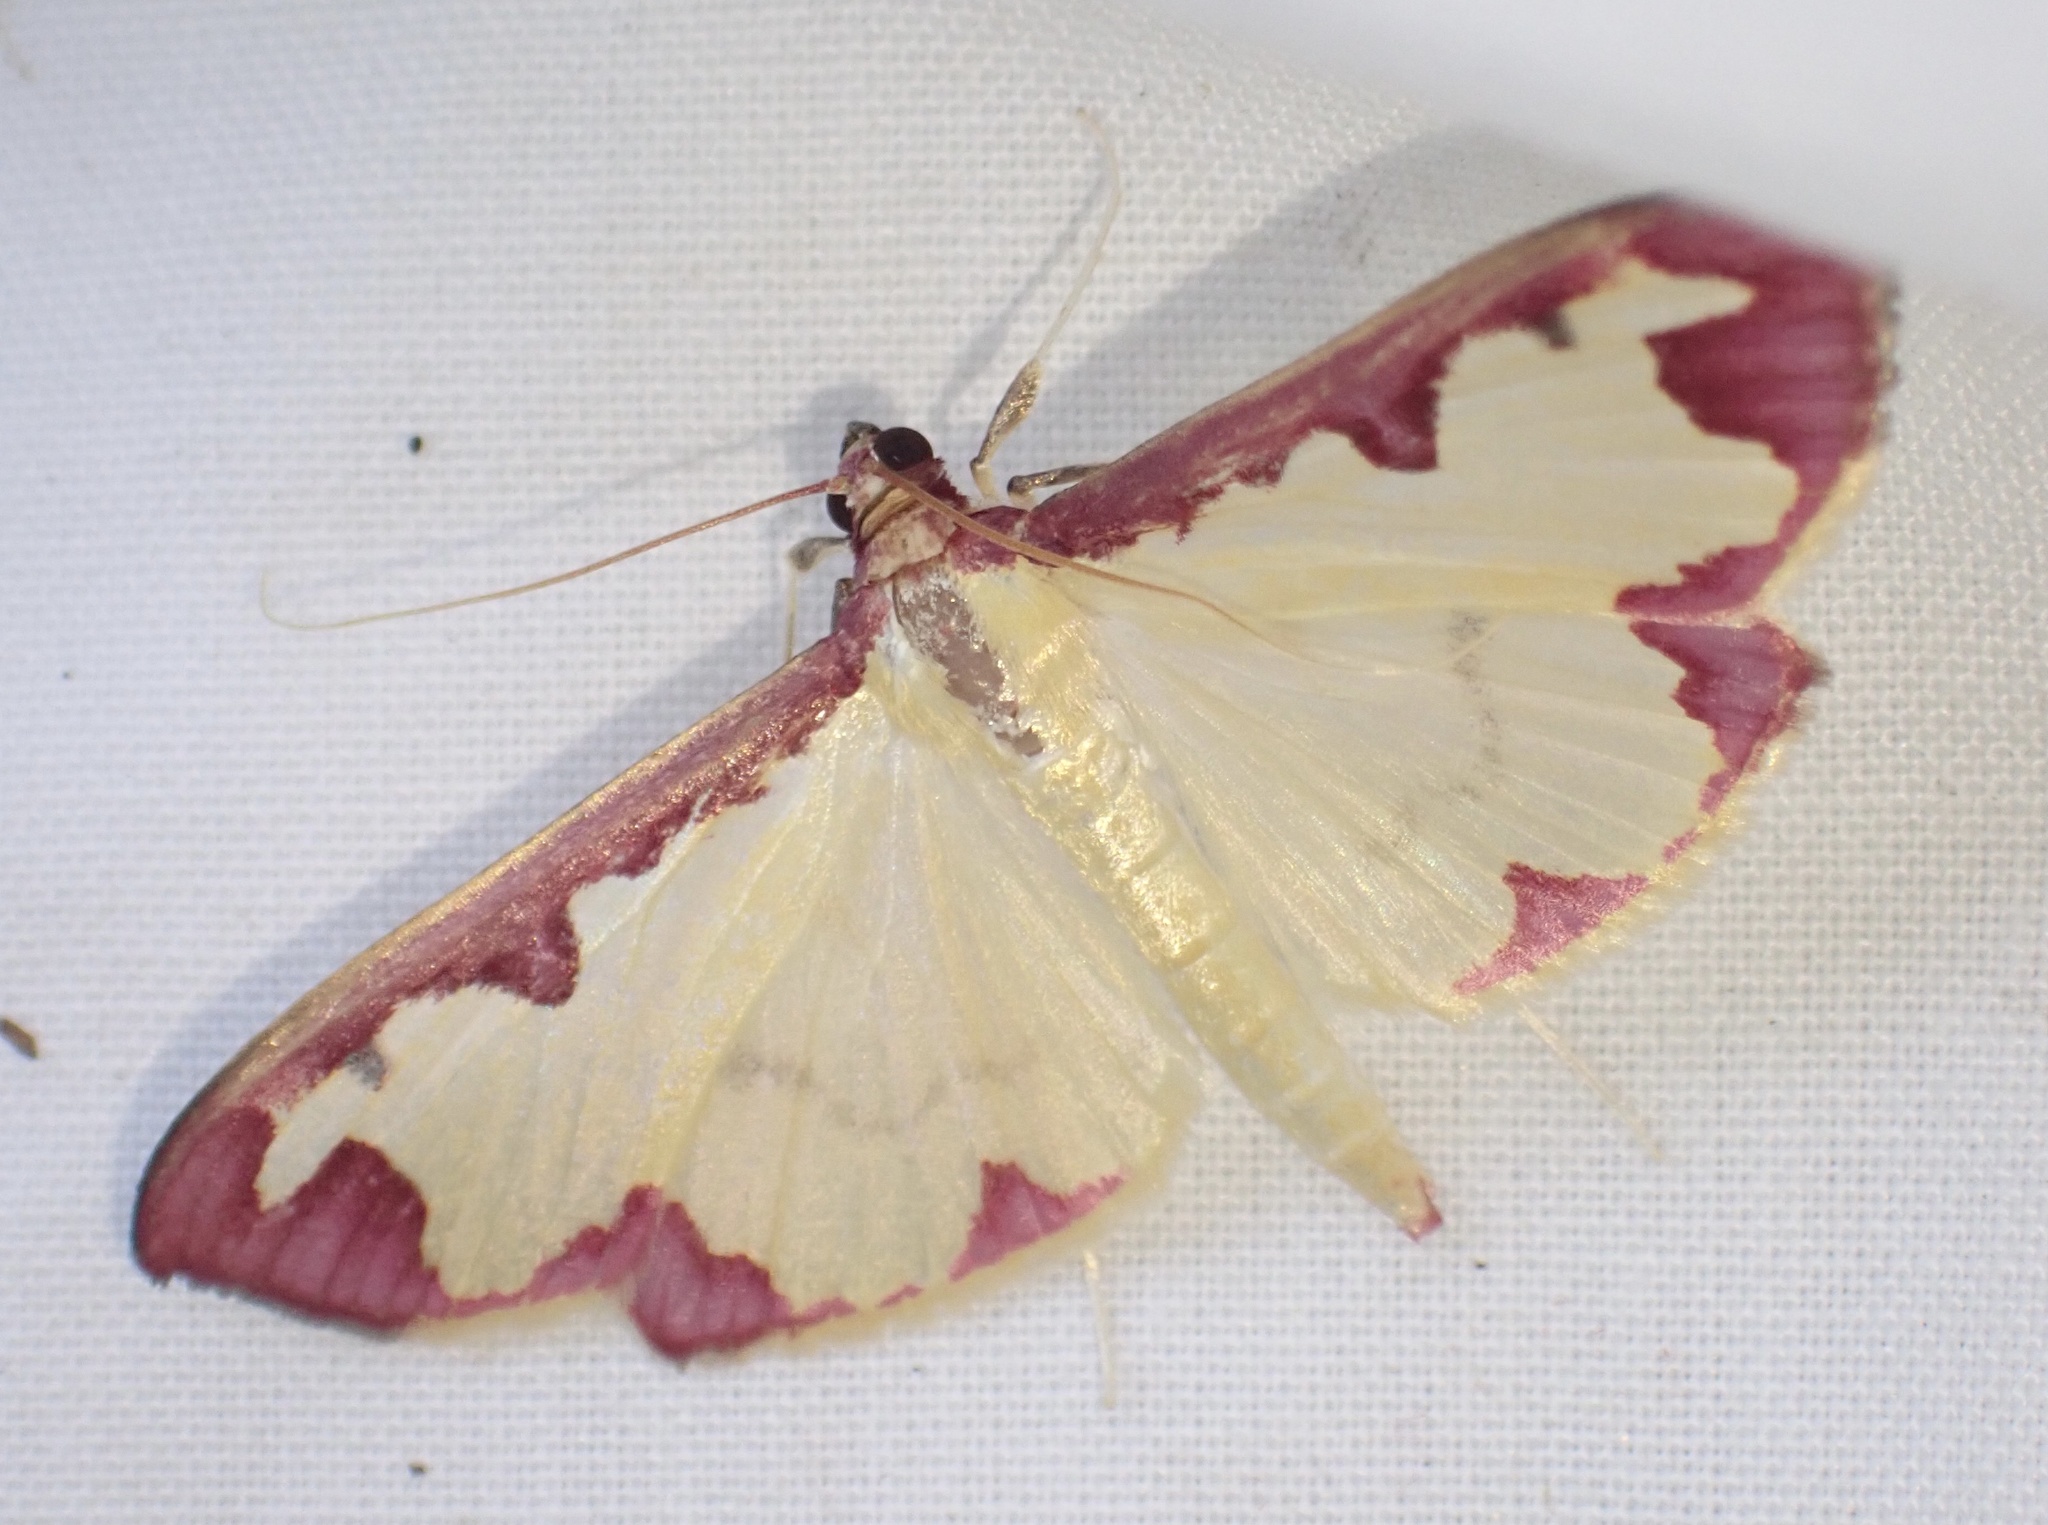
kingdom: Animalia
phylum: Arthropoda
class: Insecta
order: Lepidoptera
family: Crambidae
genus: Cadarena
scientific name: Cadarena pudoraria
